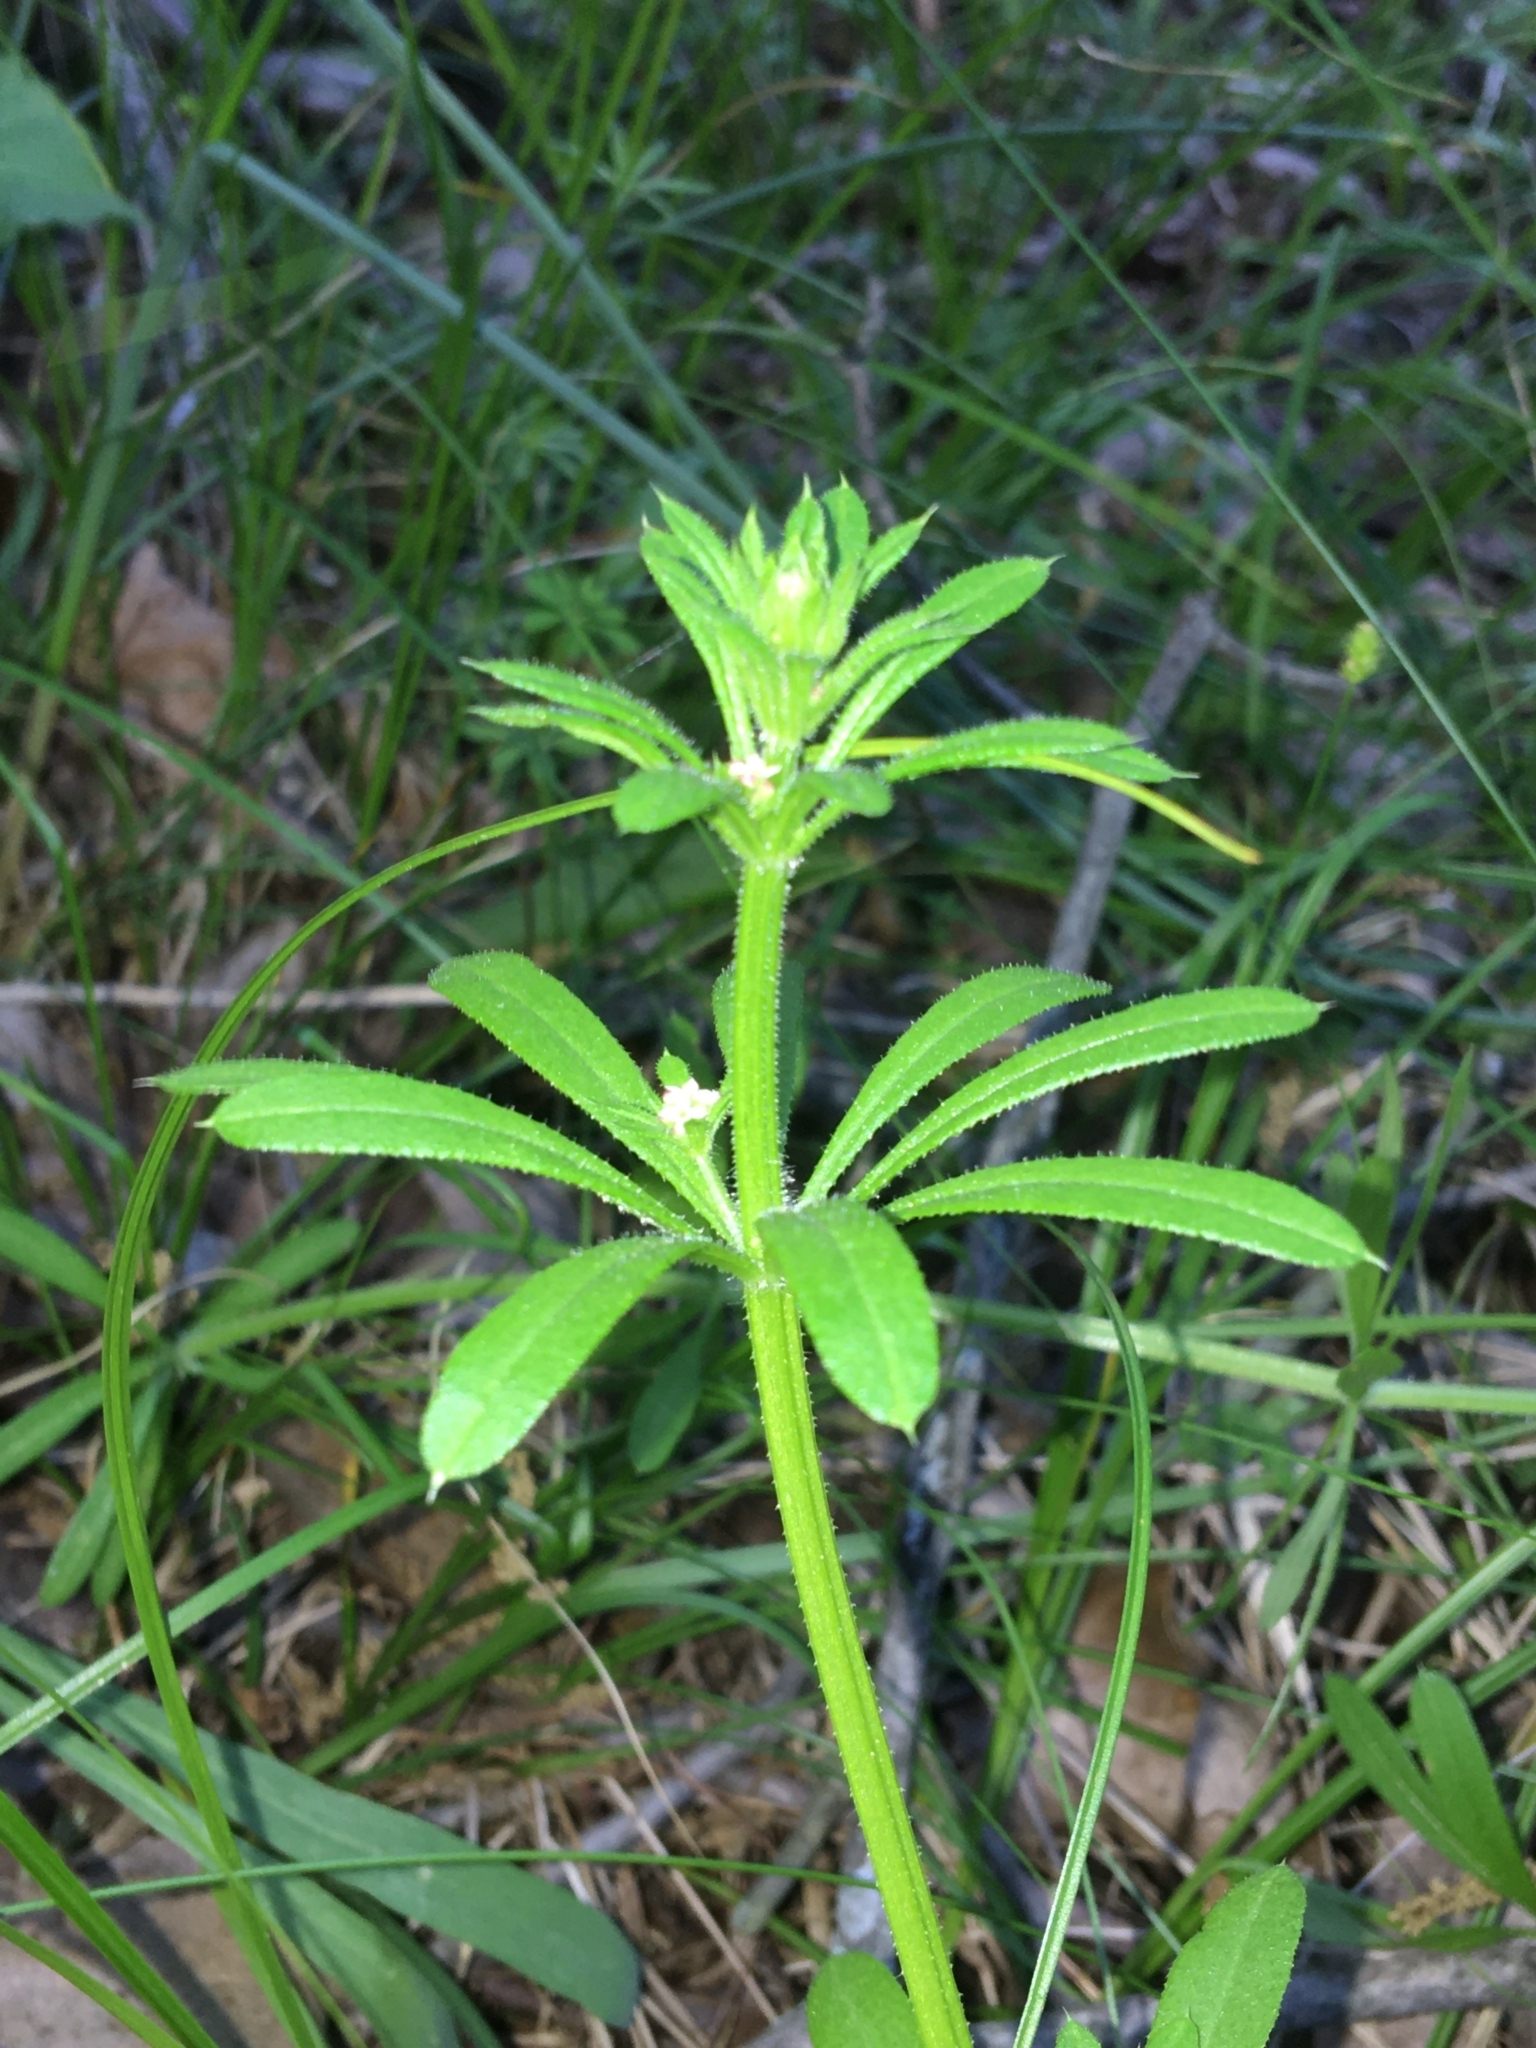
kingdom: Plantae
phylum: Tracheophyta
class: Magnoliopsida
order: Gentianales
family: Rubiaceae
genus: Galium
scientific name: Galium aparine
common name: Cleavers
